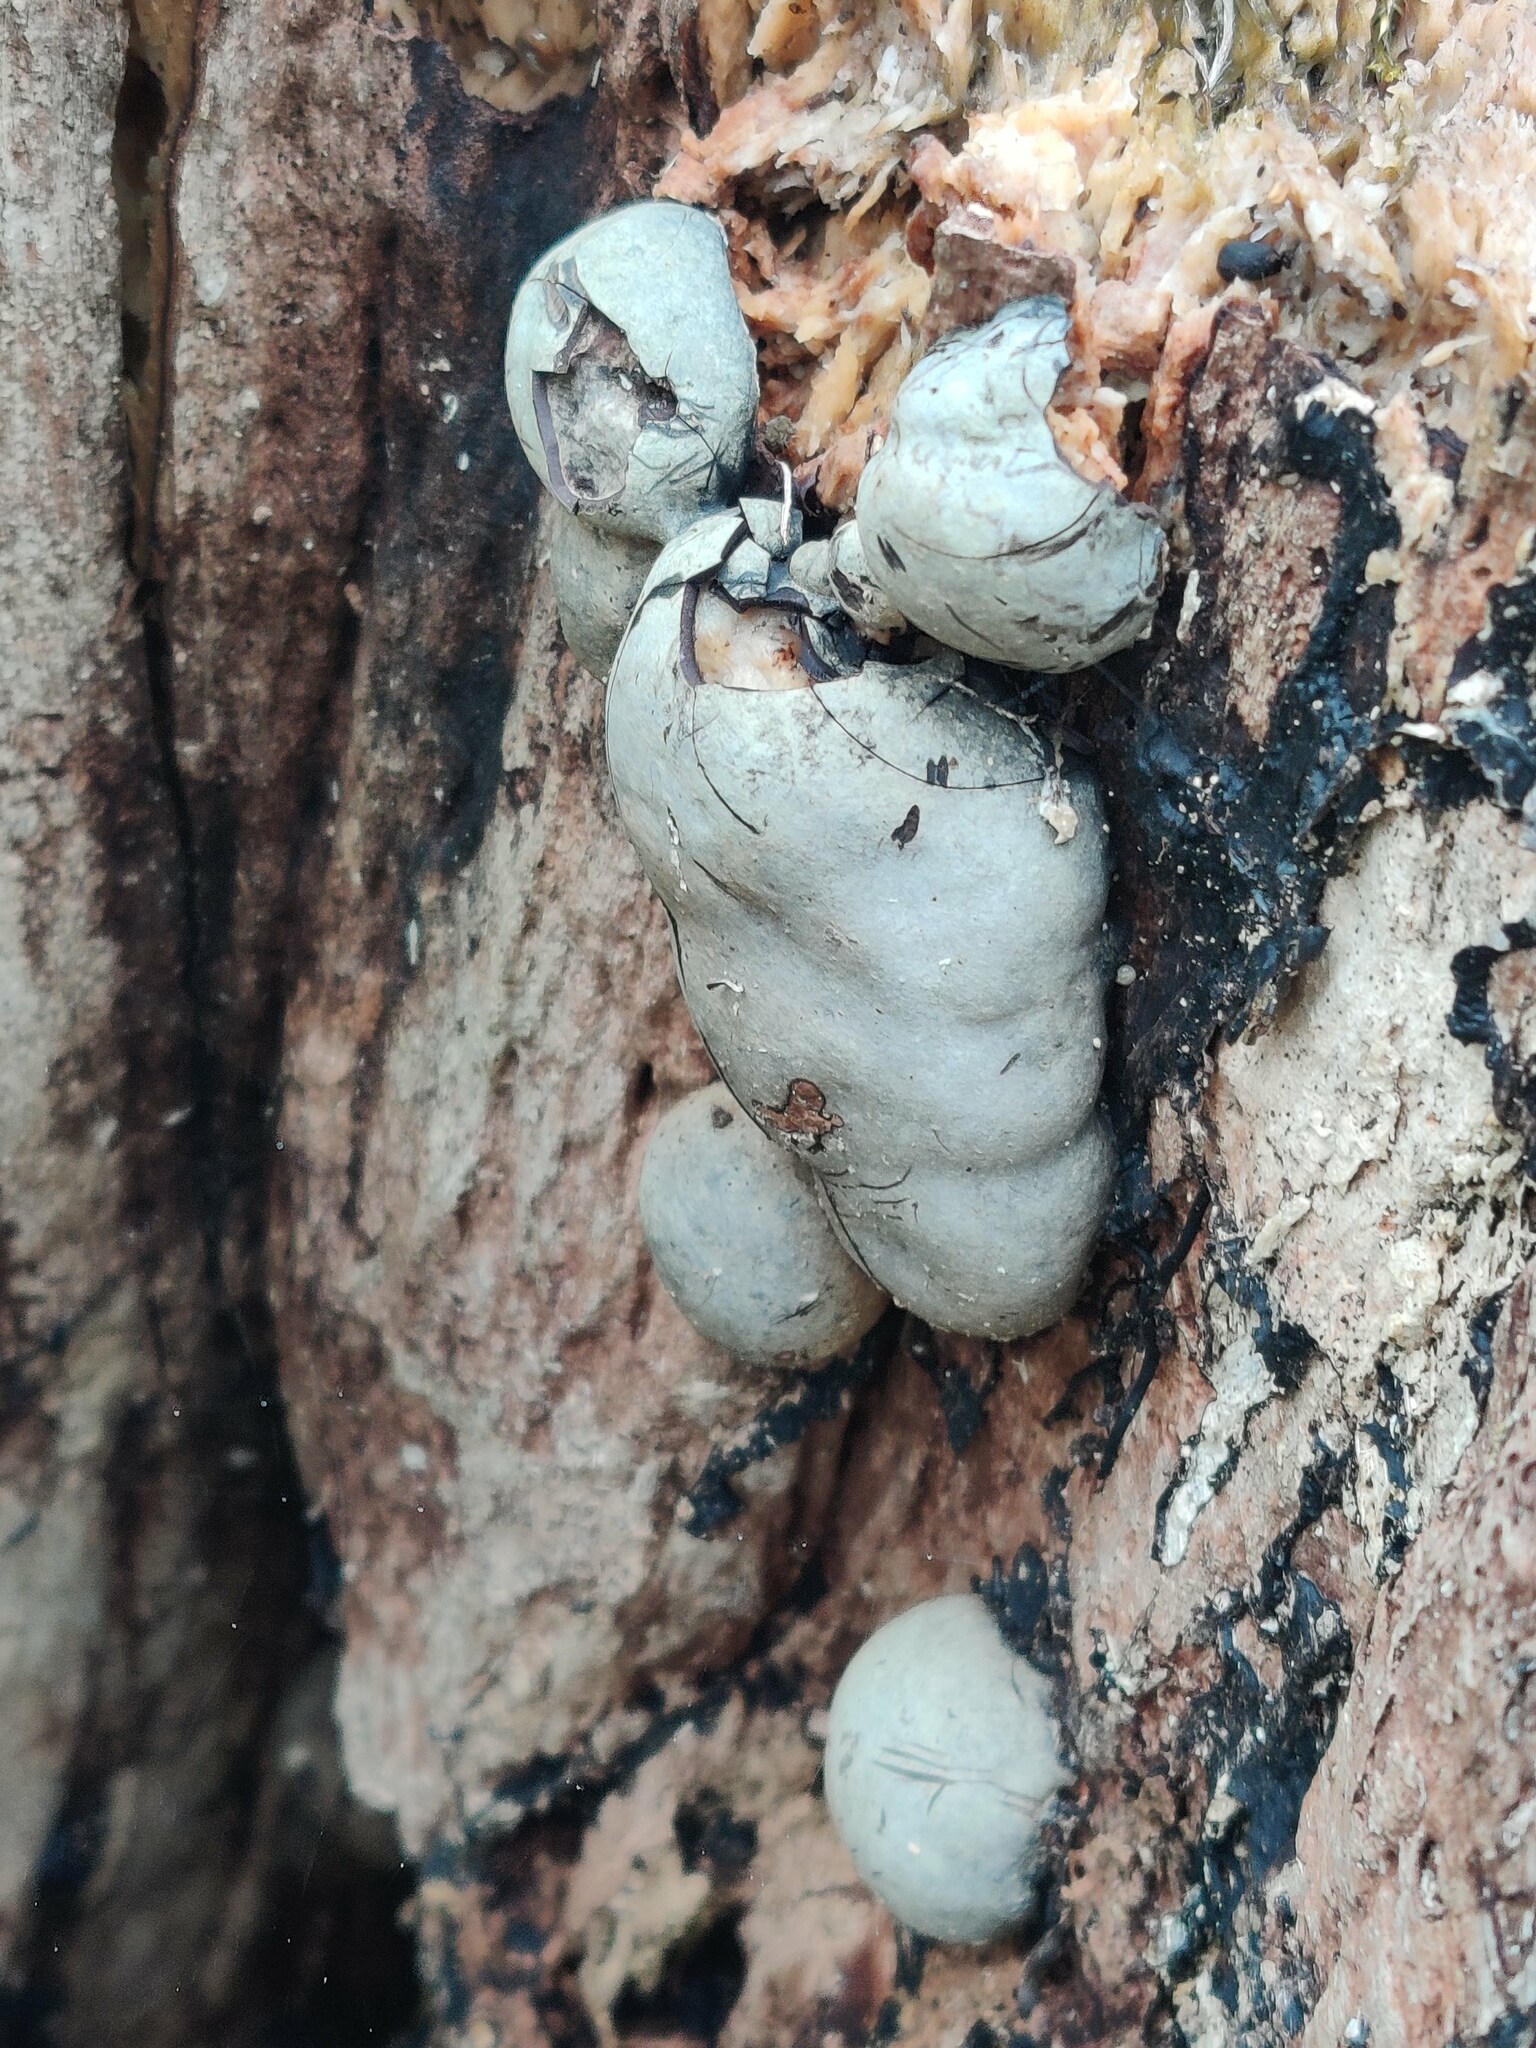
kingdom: Fungi
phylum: Ascomycota
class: Sordariomycetes
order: Xylariales
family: Hypoxylaceae
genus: Daldinia
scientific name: Daldinia concentrica
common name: Cramp balls
